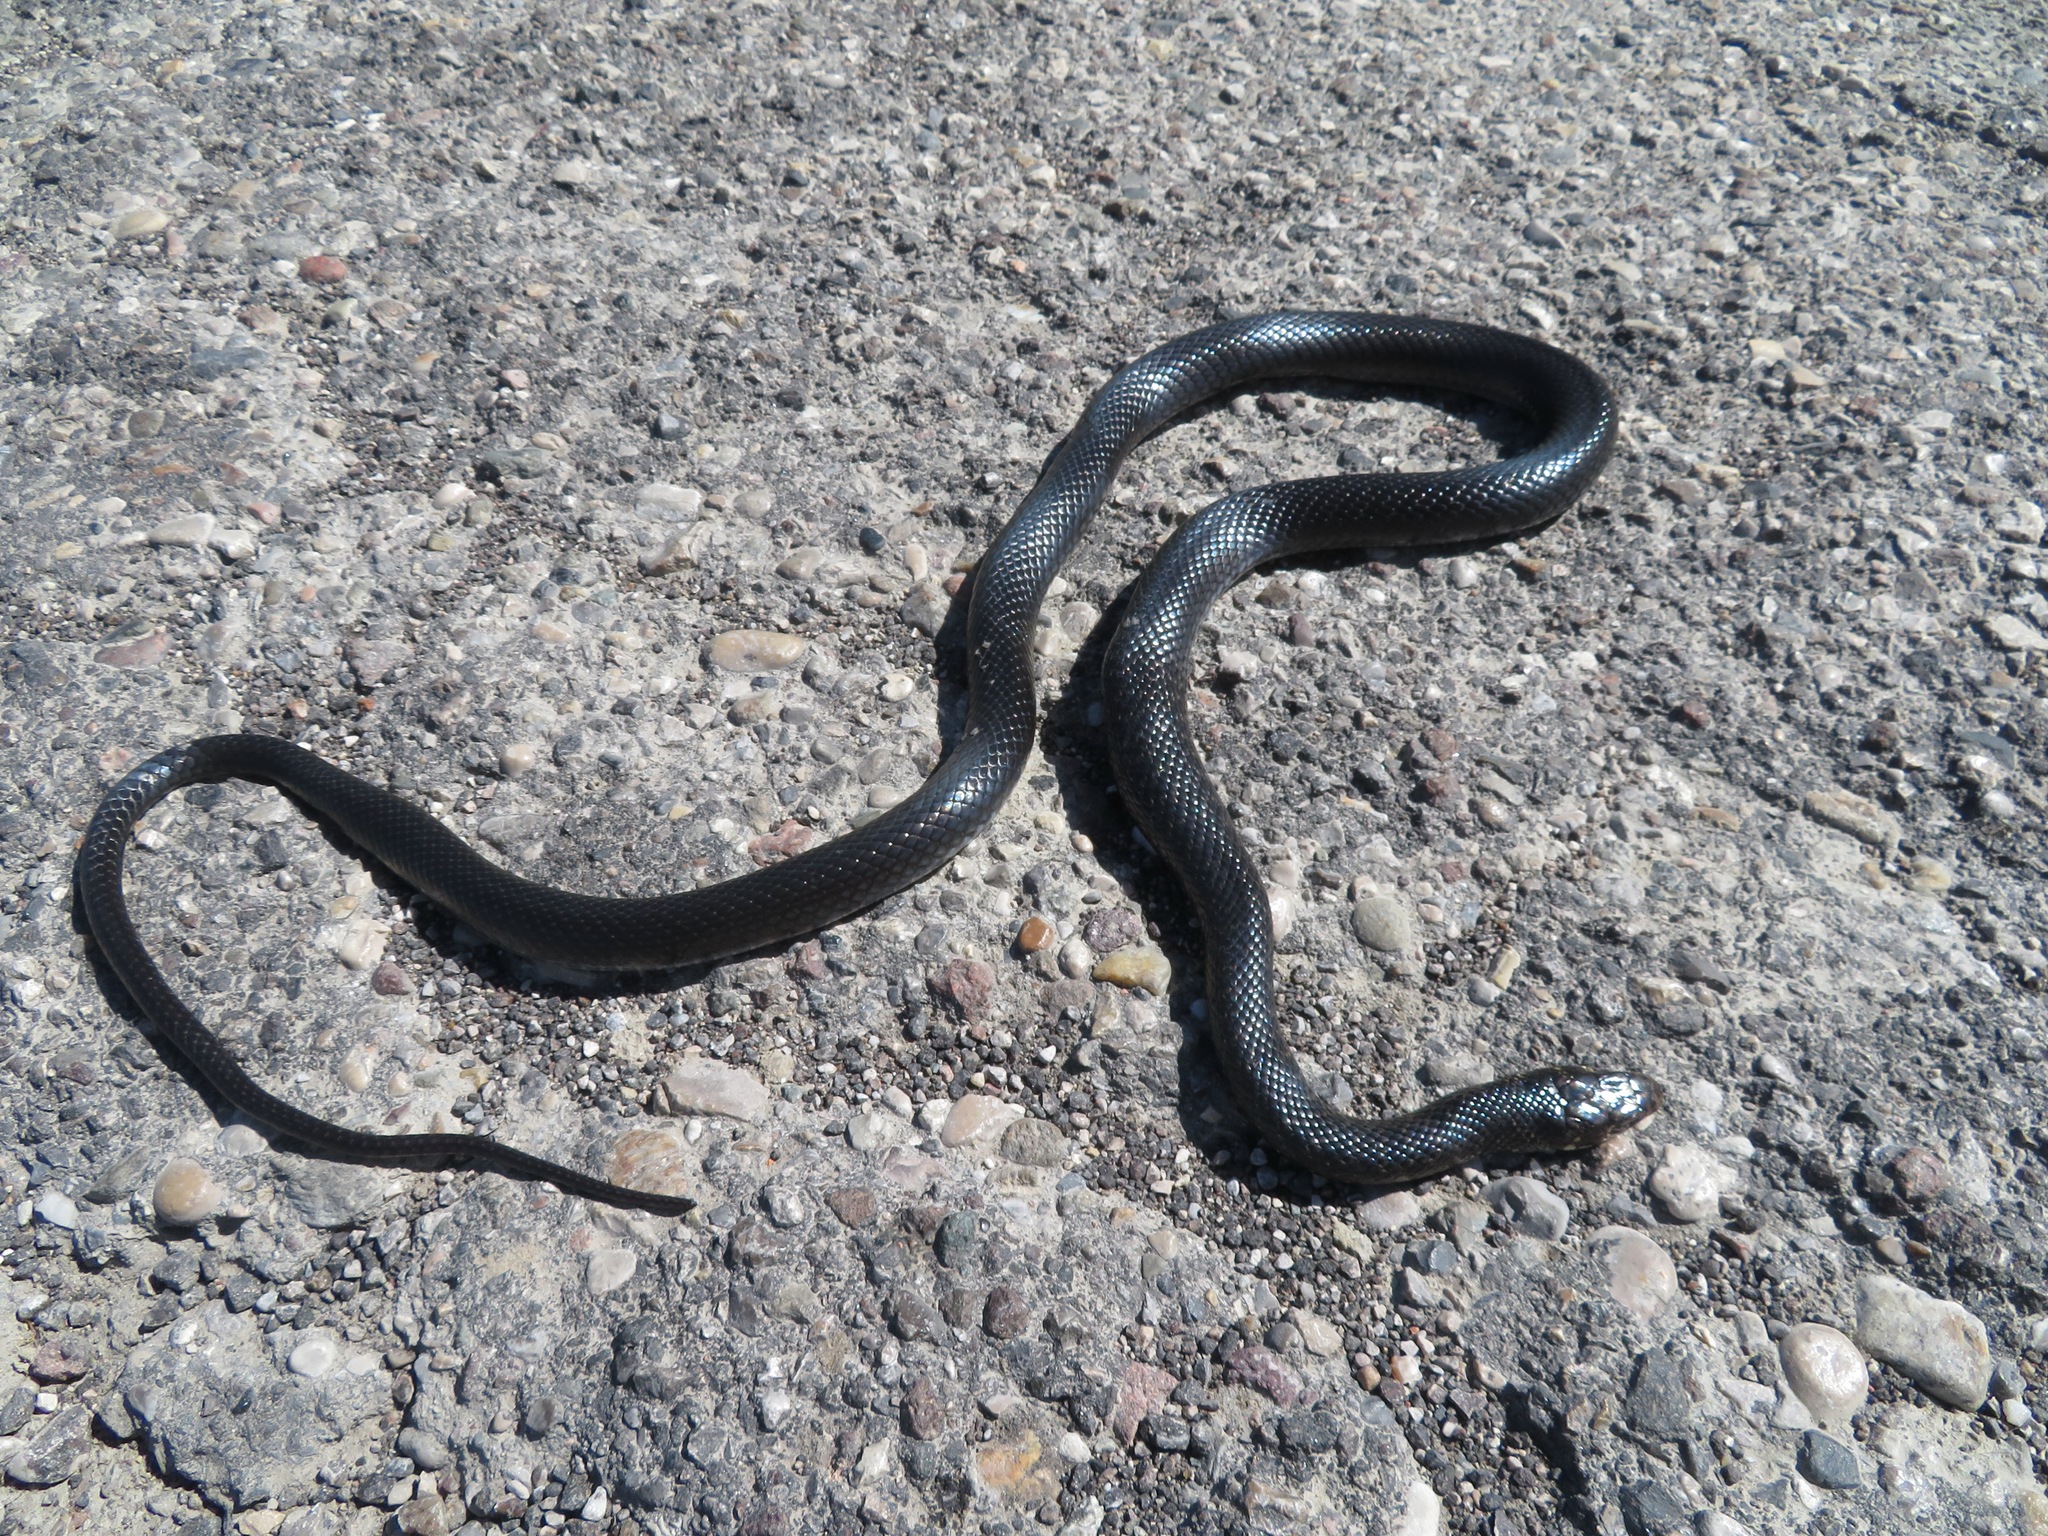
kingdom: Animalia
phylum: Chordata
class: Squamata
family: Colubridae
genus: Hierophis
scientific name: Hierophis viridiflavus
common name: Green whip snake
